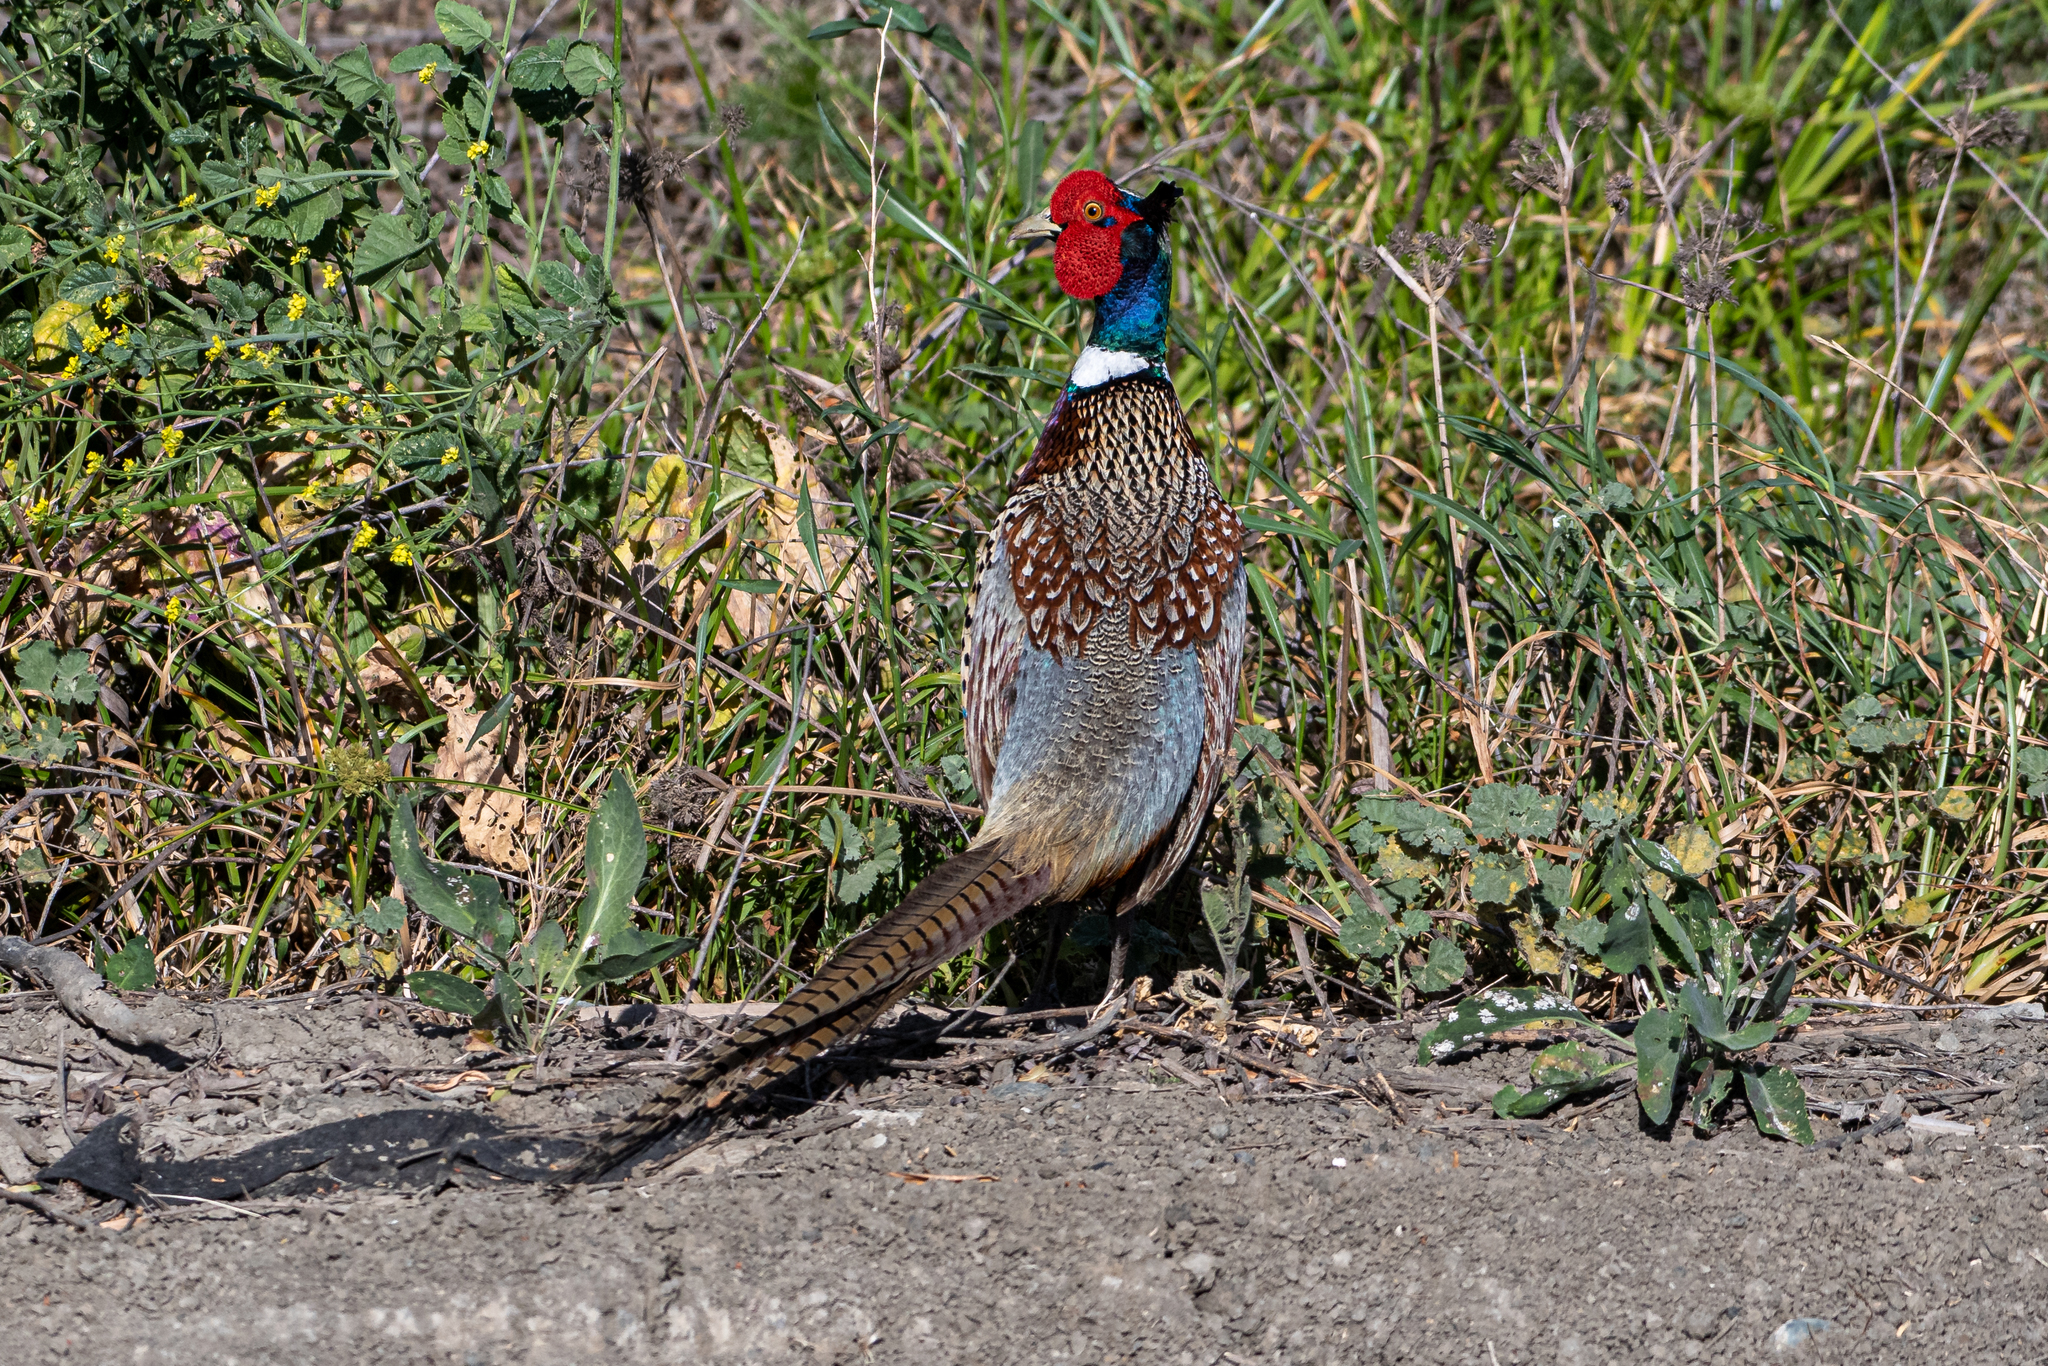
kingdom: Animalia
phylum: Chordata
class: Aves
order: Galliformes
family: Phasianidae
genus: Phasianus
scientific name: Phasianus colchicus
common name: Common pheasant
